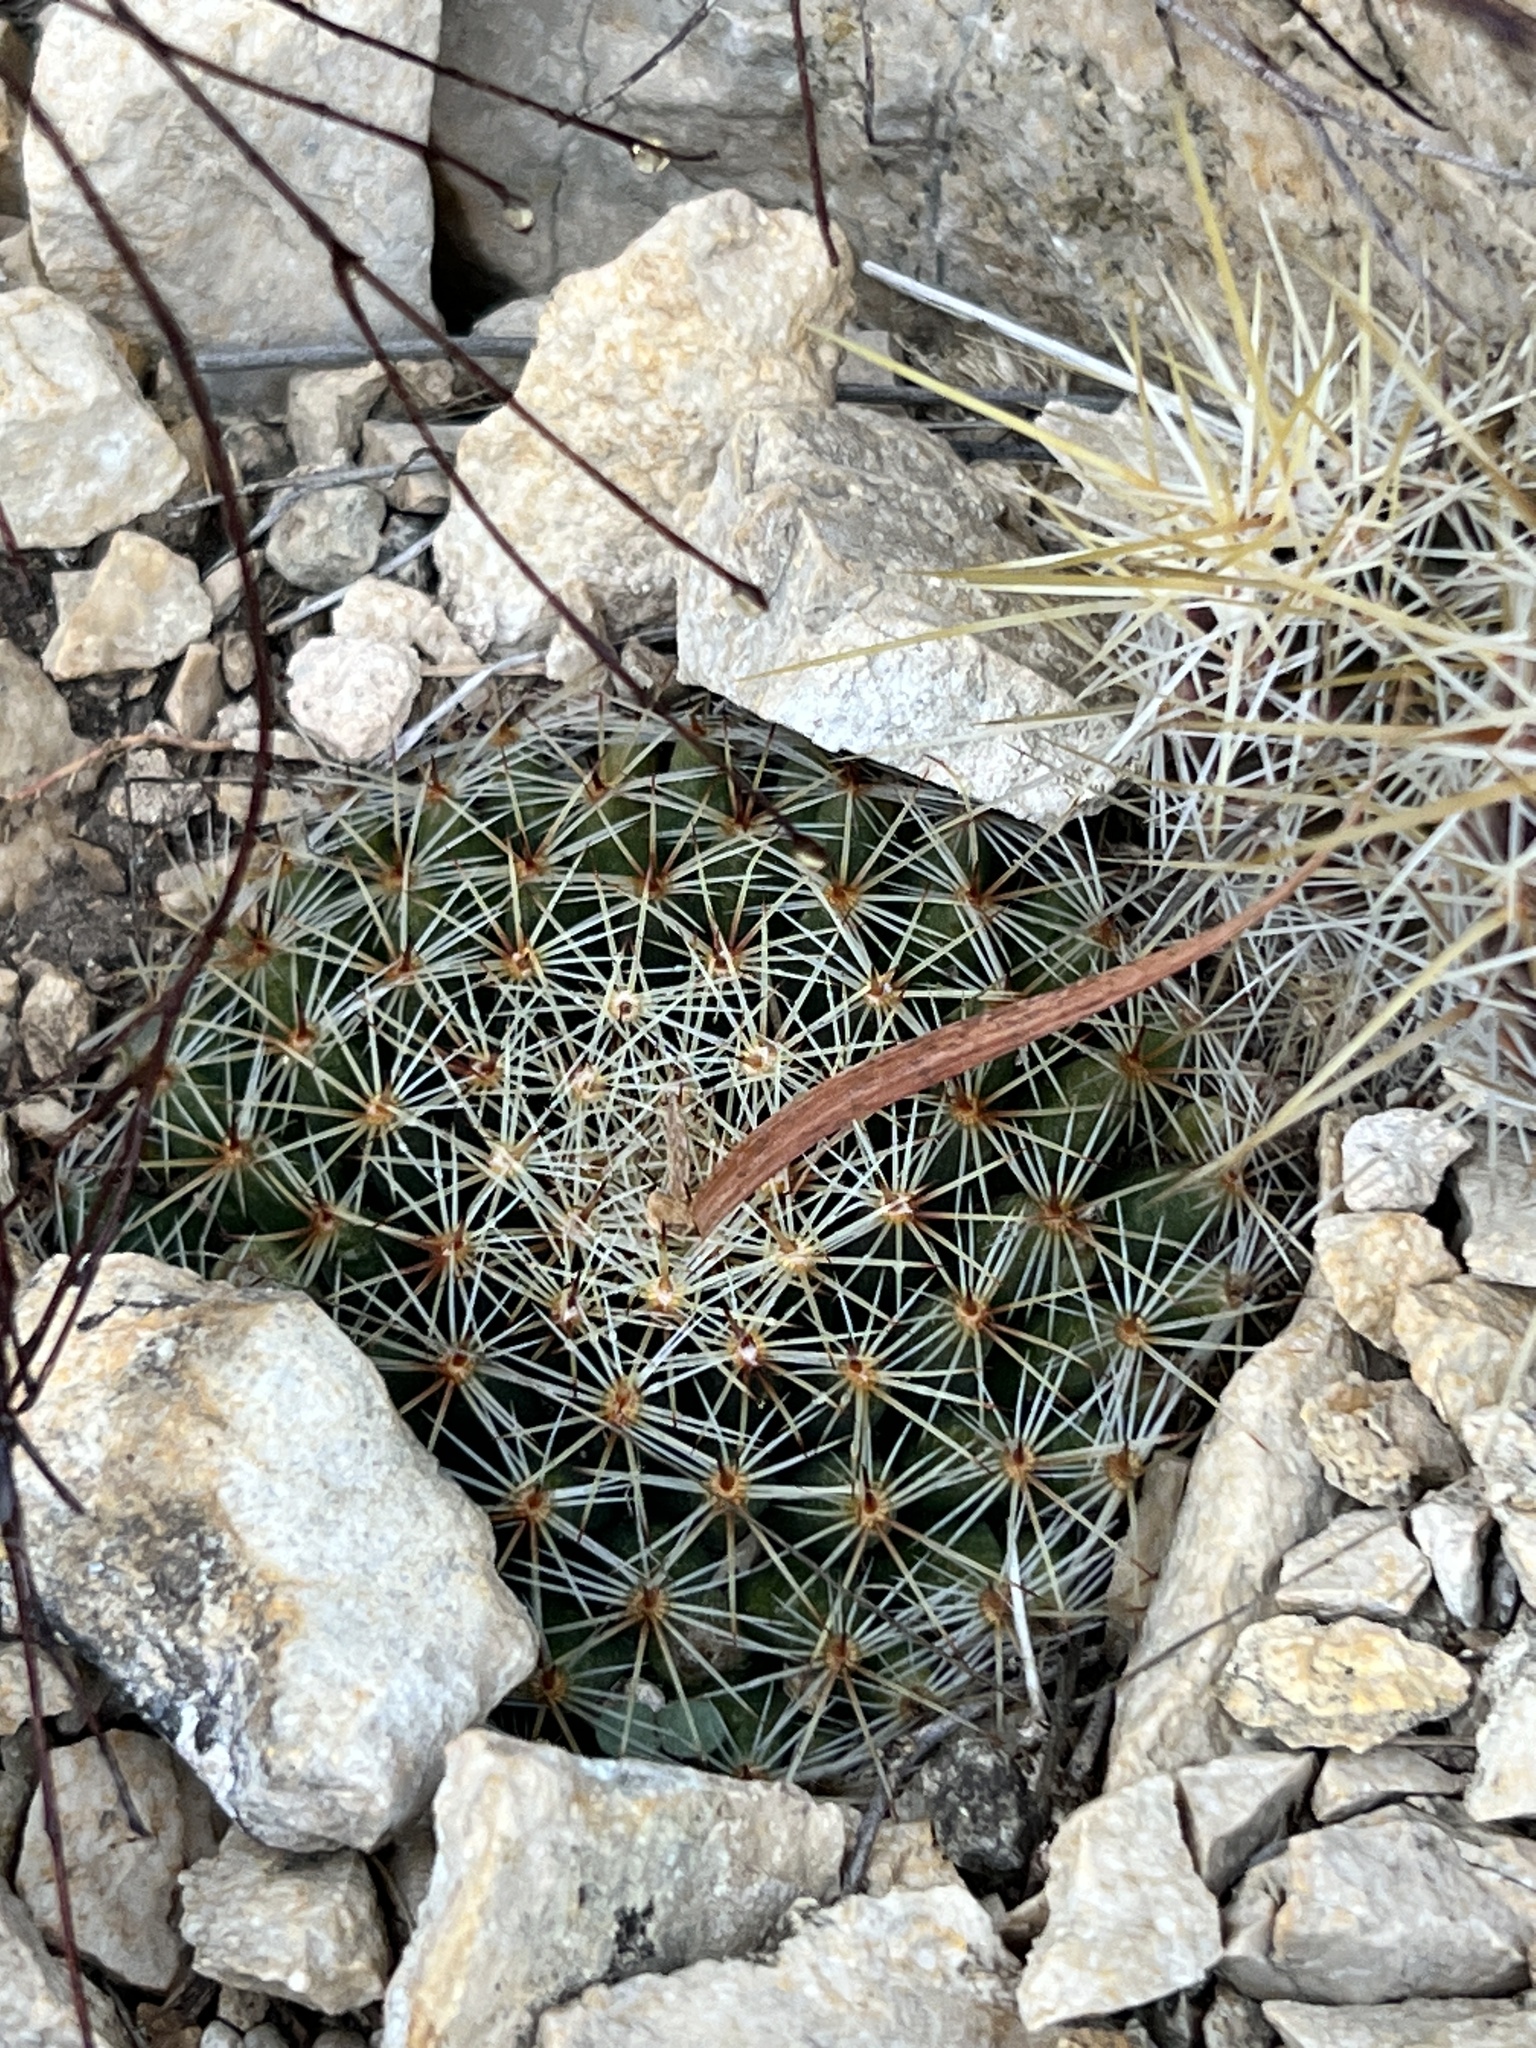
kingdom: Plantae
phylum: Tracheophyta
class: Magnoliopsida
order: Caryophyllales
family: Cactaceae
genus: Mammillaria
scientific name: Mammillaria heyderi
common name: Little nipple cactus
